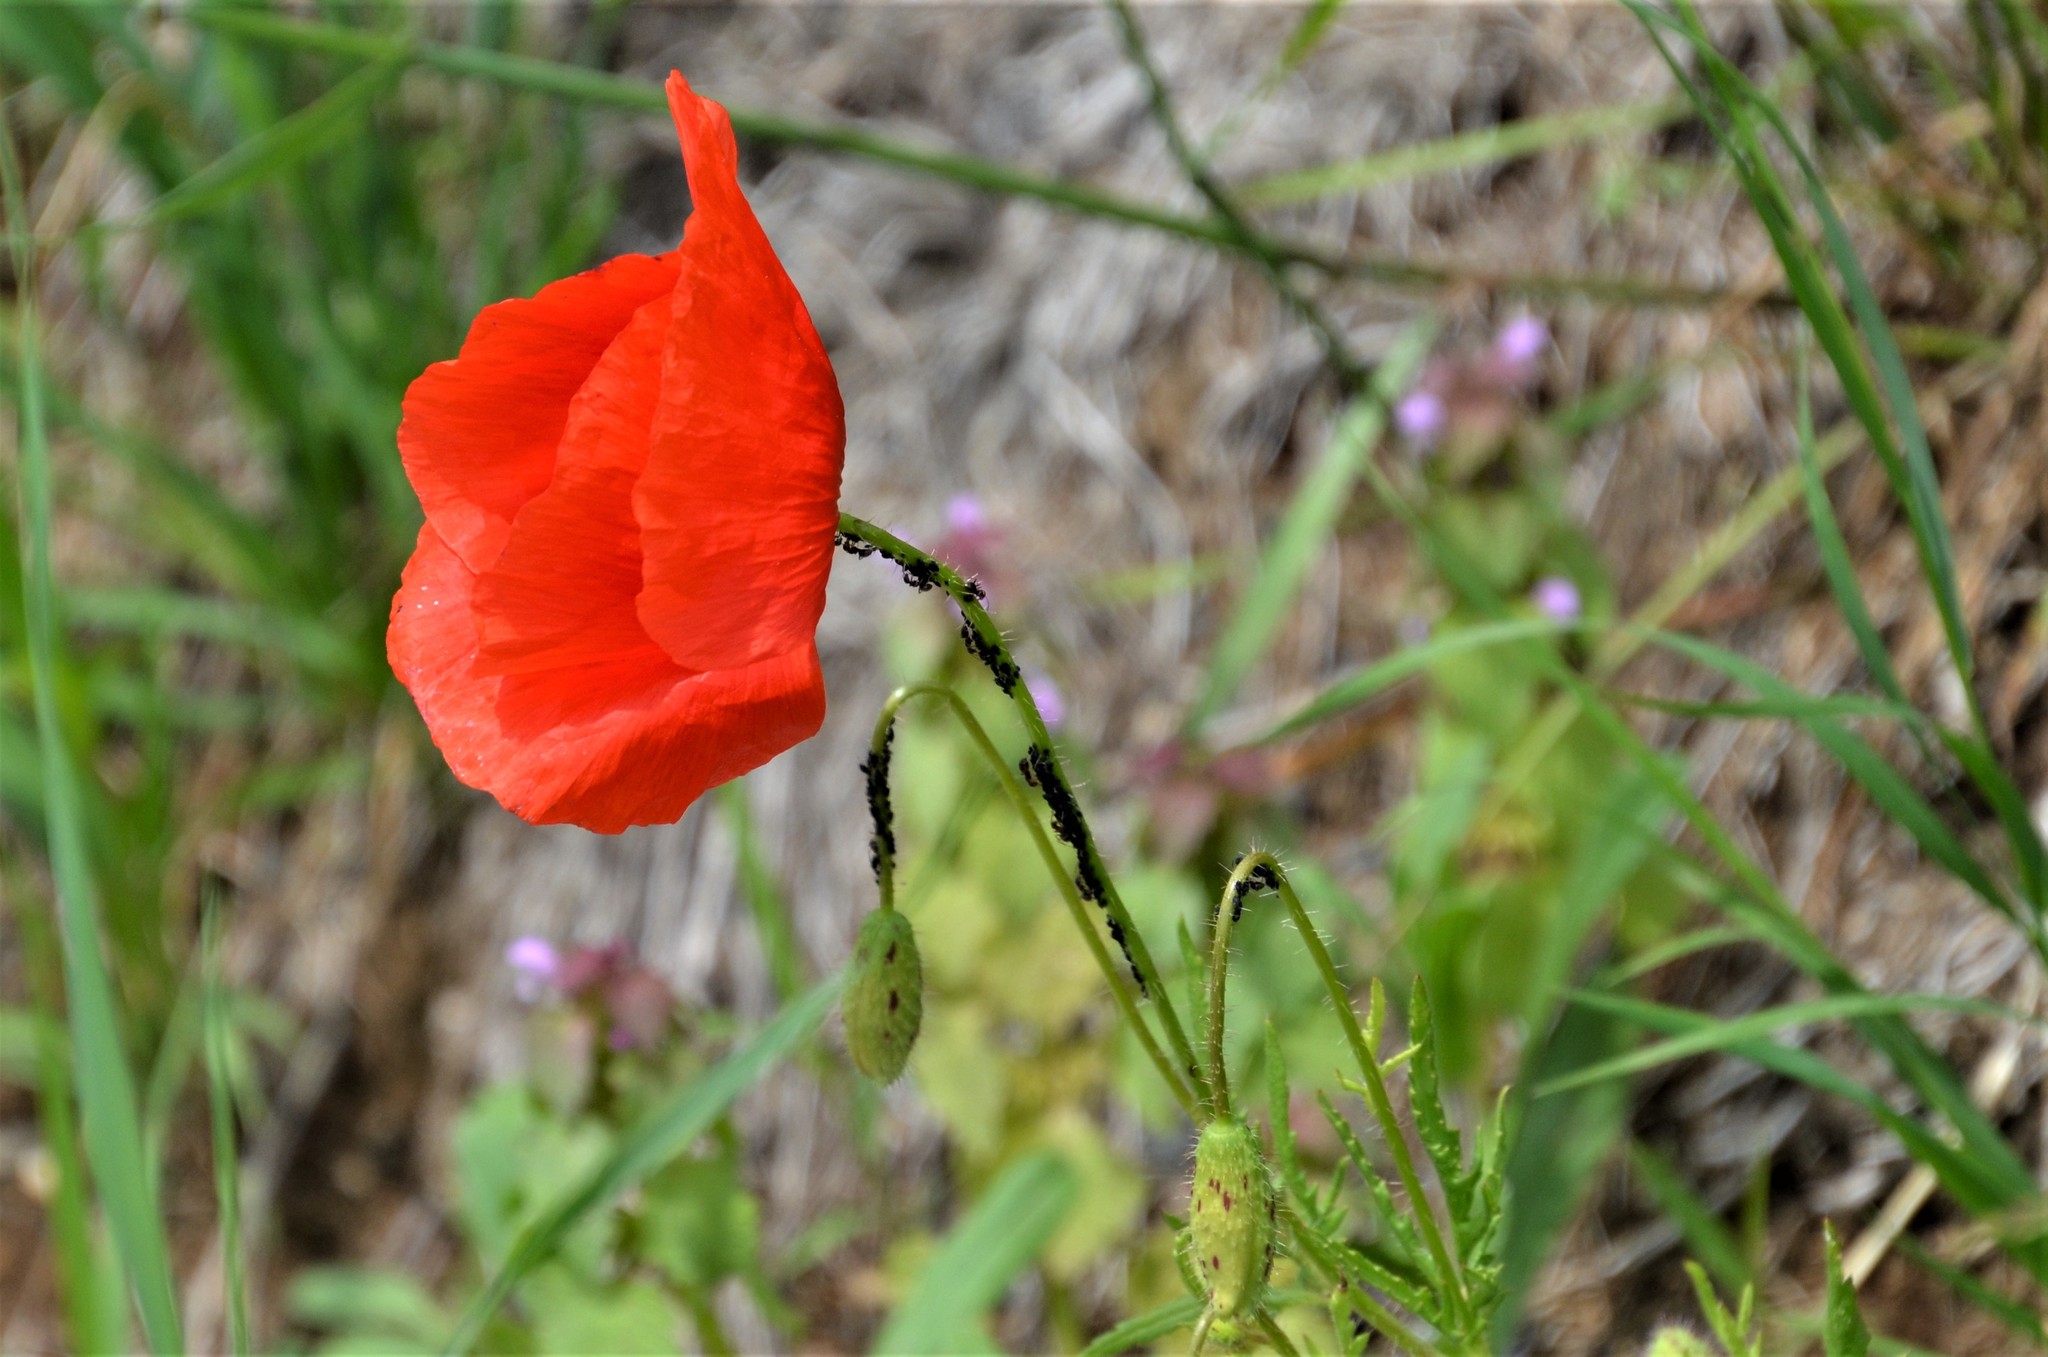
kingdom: Plantae
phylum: Tracheophyta
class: Magnoliopsida
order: Ranunculales
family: Papaveraceae
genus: Papaver
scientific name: Papaver rhoeas
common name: Corn poppy
